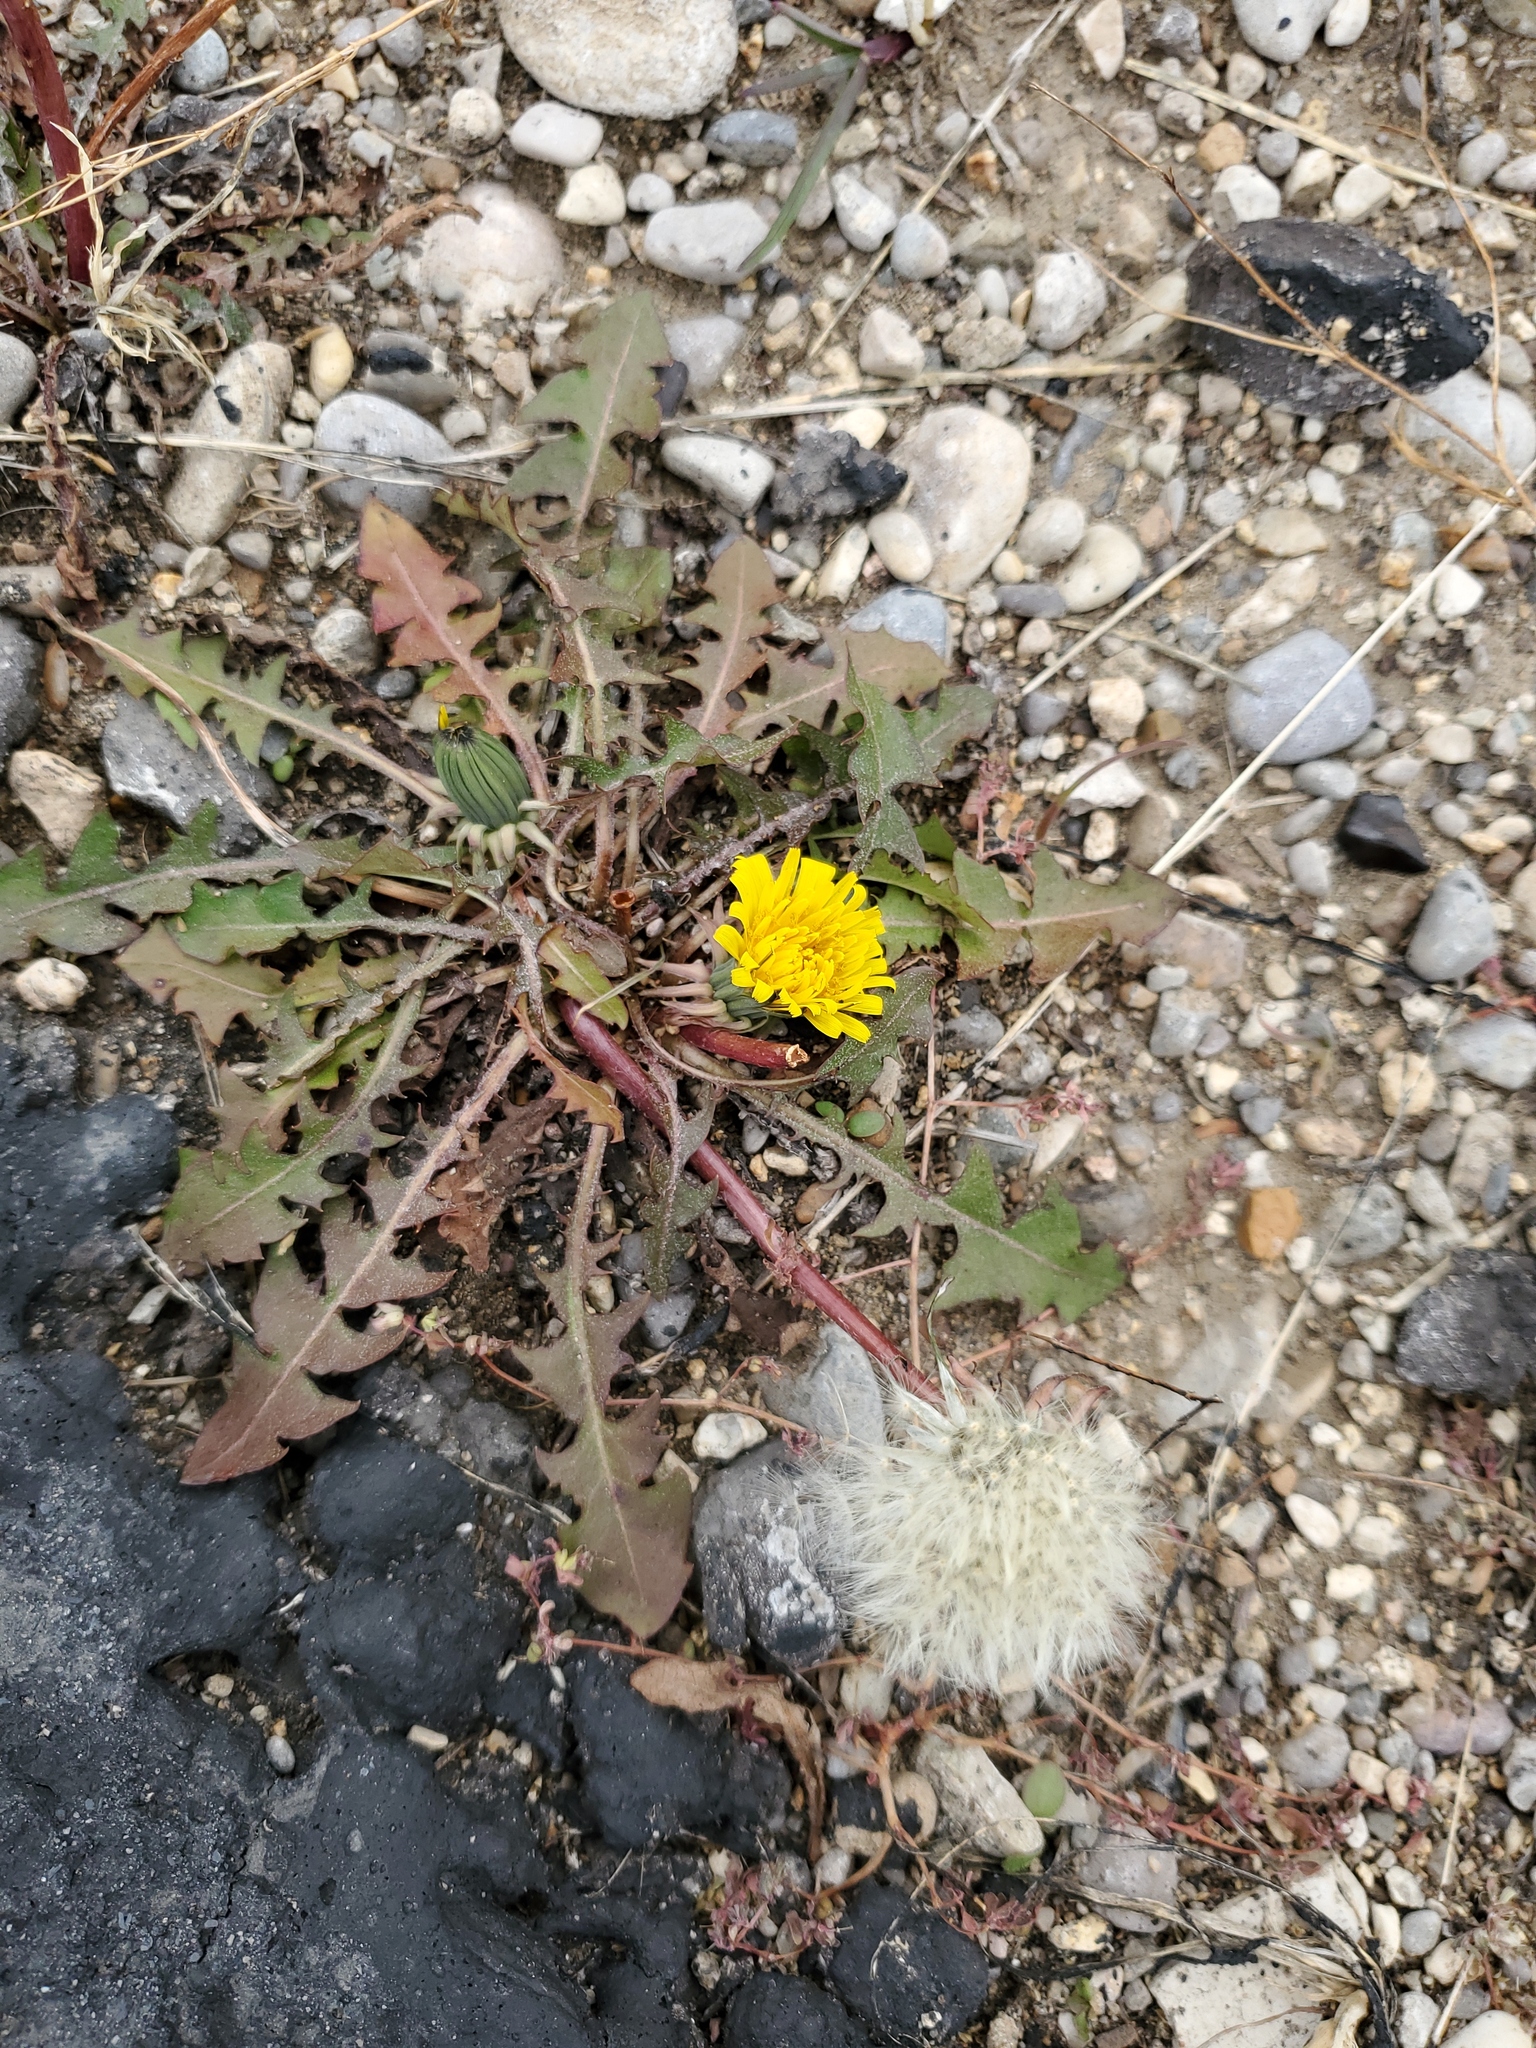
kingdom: Plantae
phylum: Tracheophyta
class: Magnoliopsida
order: Asterales
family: Asteraceae
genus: Taraxacum
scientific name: Taraxacum officinale
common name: Common dandelion
